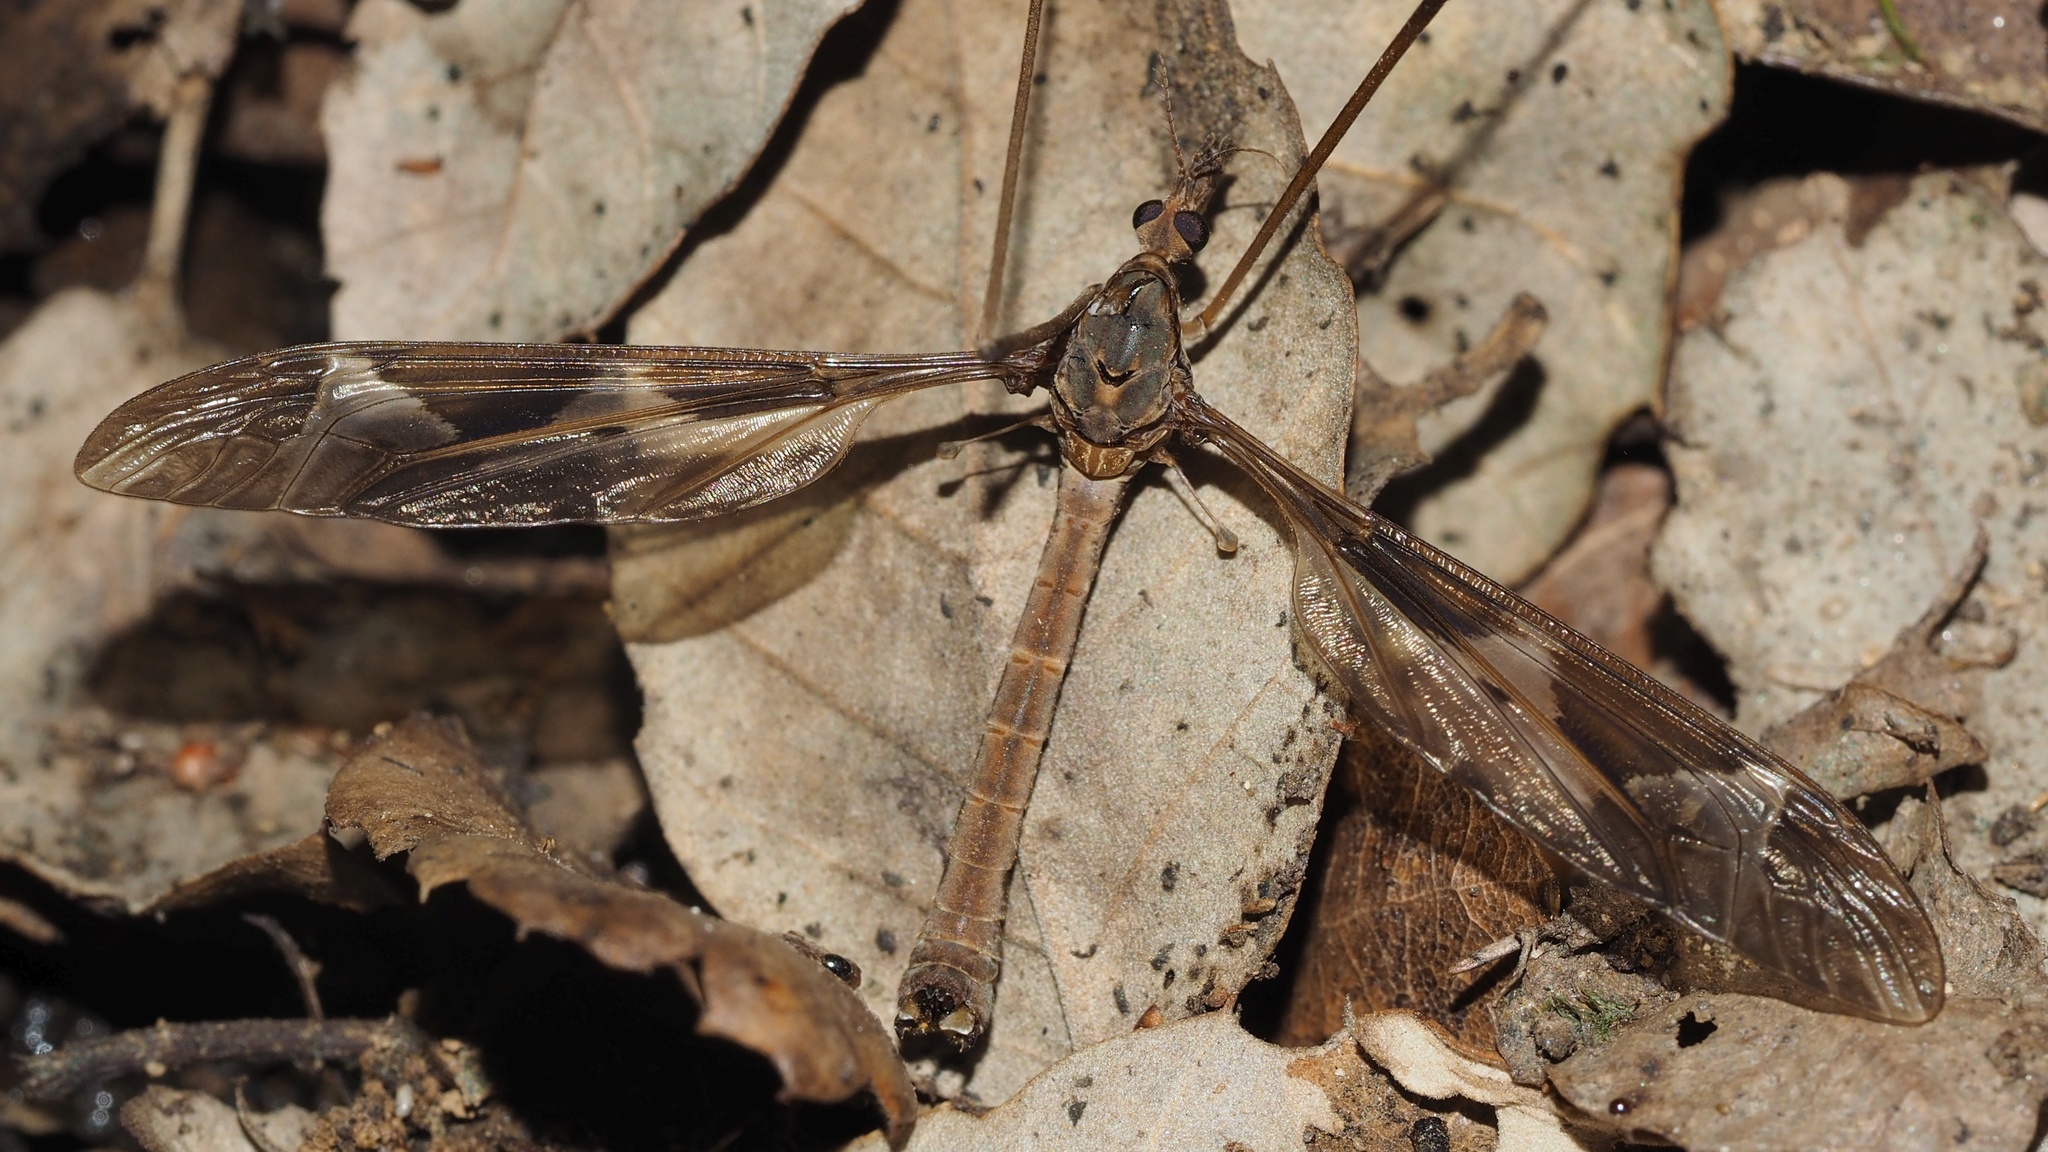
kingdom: Animalia
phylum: Arthropoda
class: Insecta
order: Diptera
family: Tipulidae
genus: Tipula
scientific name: Tipula maxima
